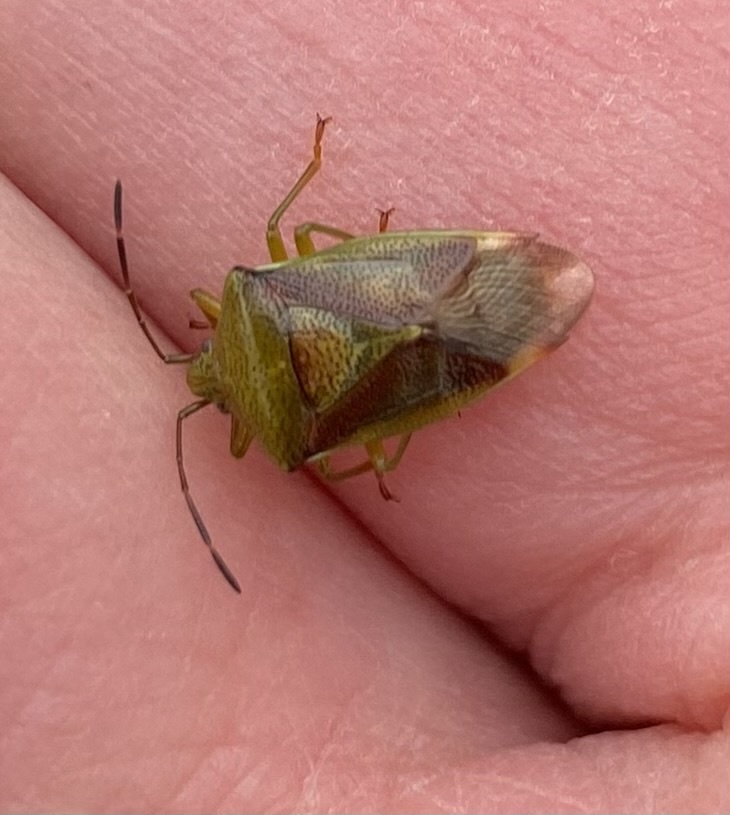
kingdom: Animalia
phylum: Arthropoda
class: Insecta
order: Hemiptera
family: Acanthosomatidae
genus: Elasmostethus
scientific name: Elasmostethus interstinctus
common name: Birch shieldbug
